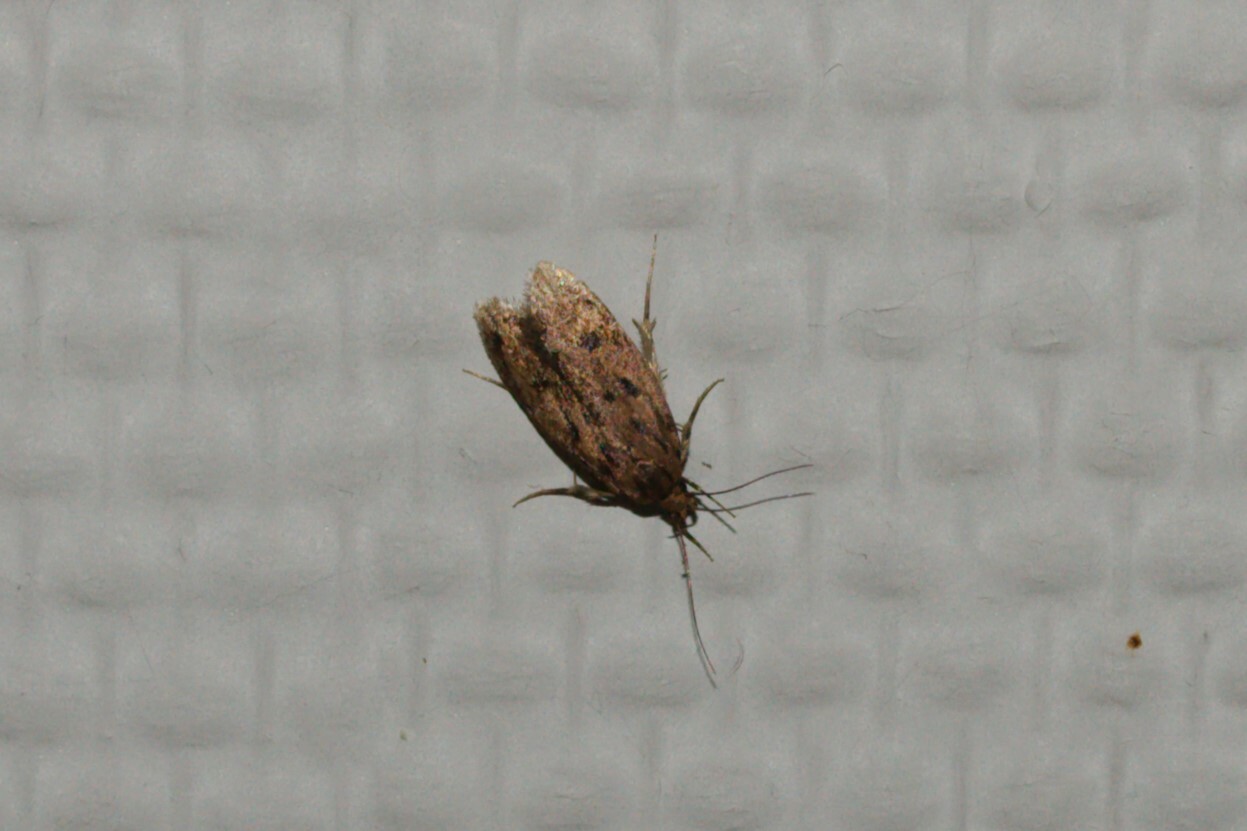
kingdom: Animalia
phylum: Arthropoda
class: Insecta
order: Lepidoptera
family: Oecophoridae
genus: Hofmannophila
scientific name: Hofmannophila pseudospretella
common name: Brown house moth
